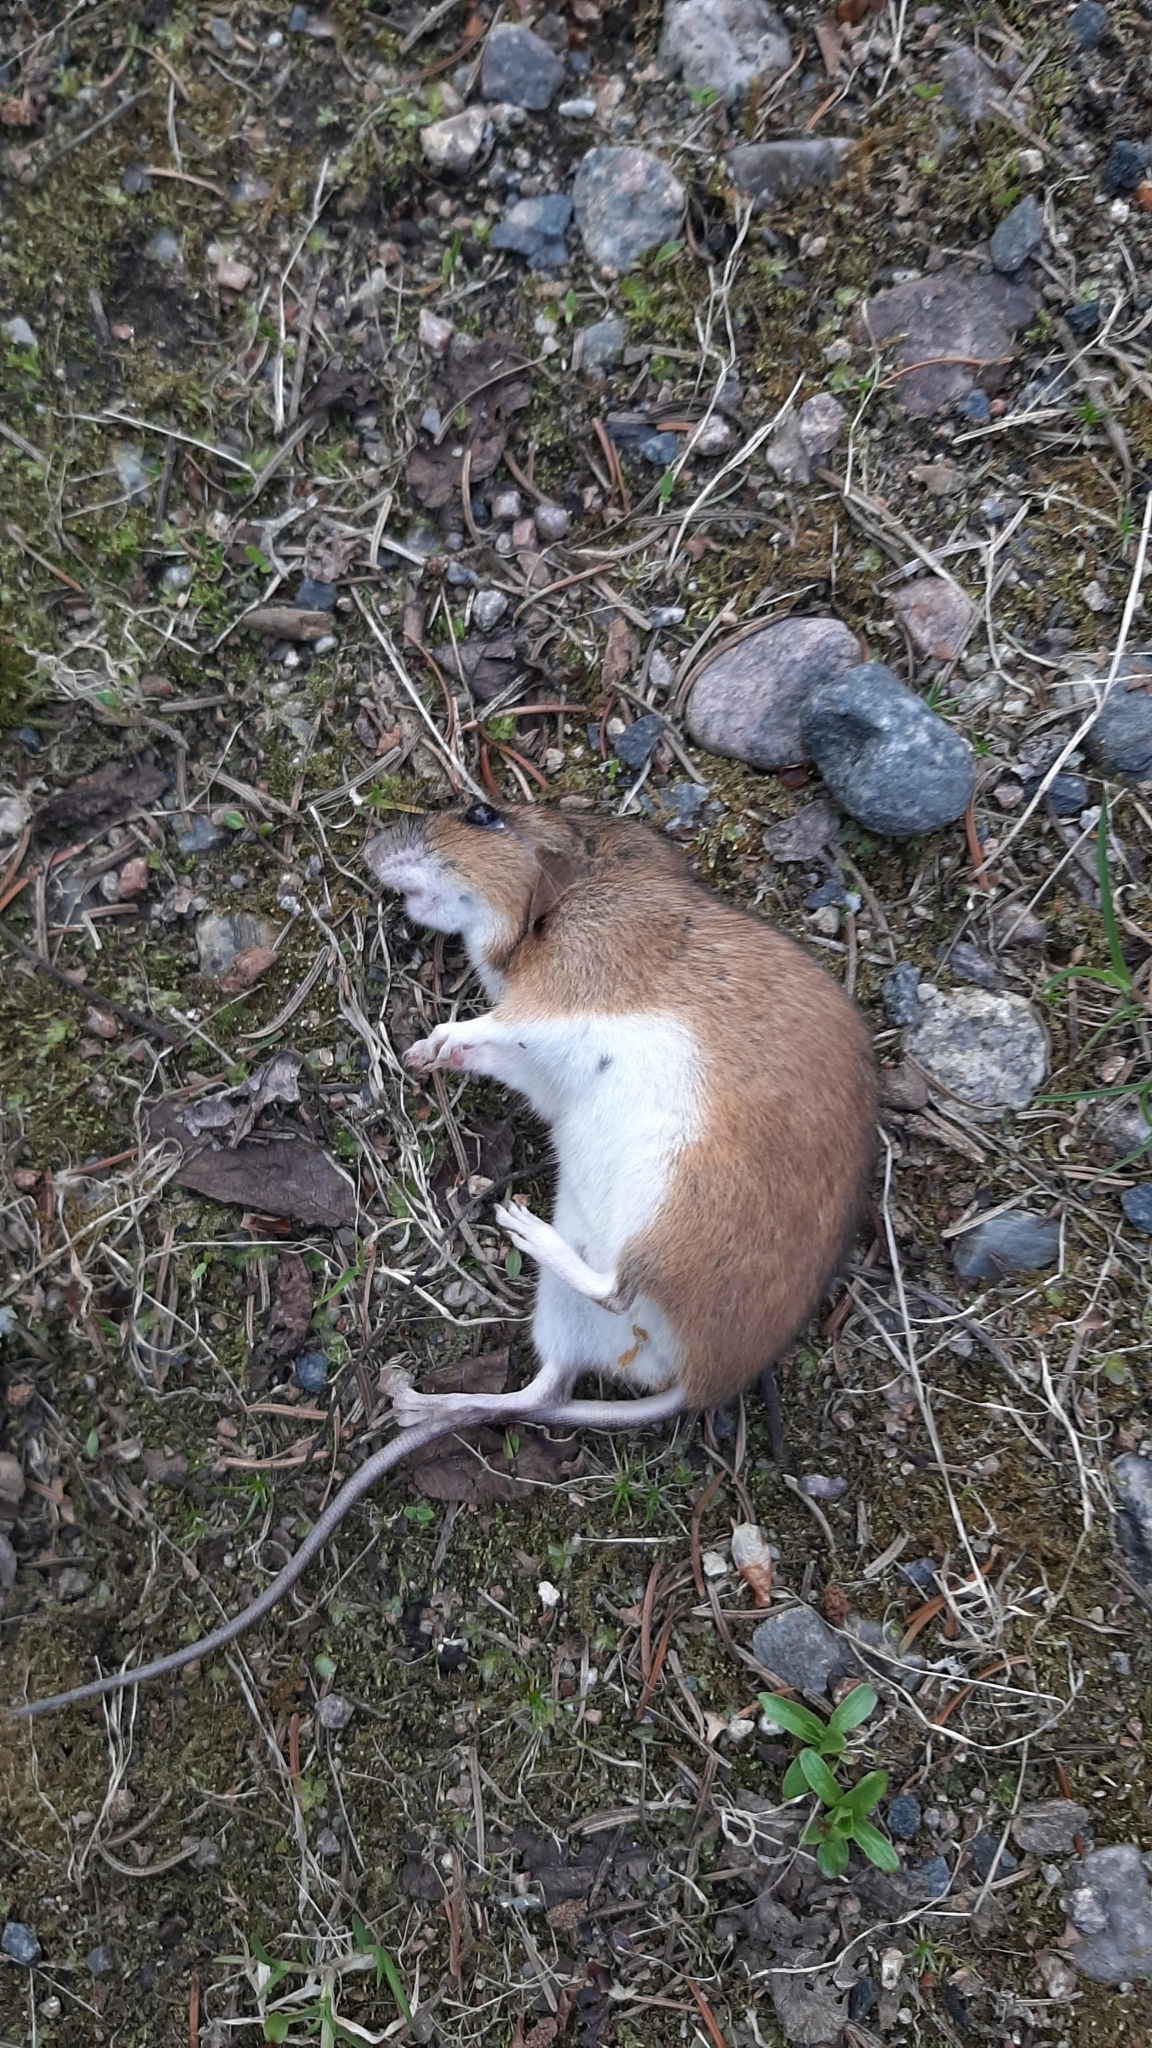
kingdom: Animalia
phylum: Chordata
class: Mammalia
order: Rodentia
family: Muridae
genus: Apodemus
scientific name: Apodemus flavicollis
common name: Yellow-necked field mouse
